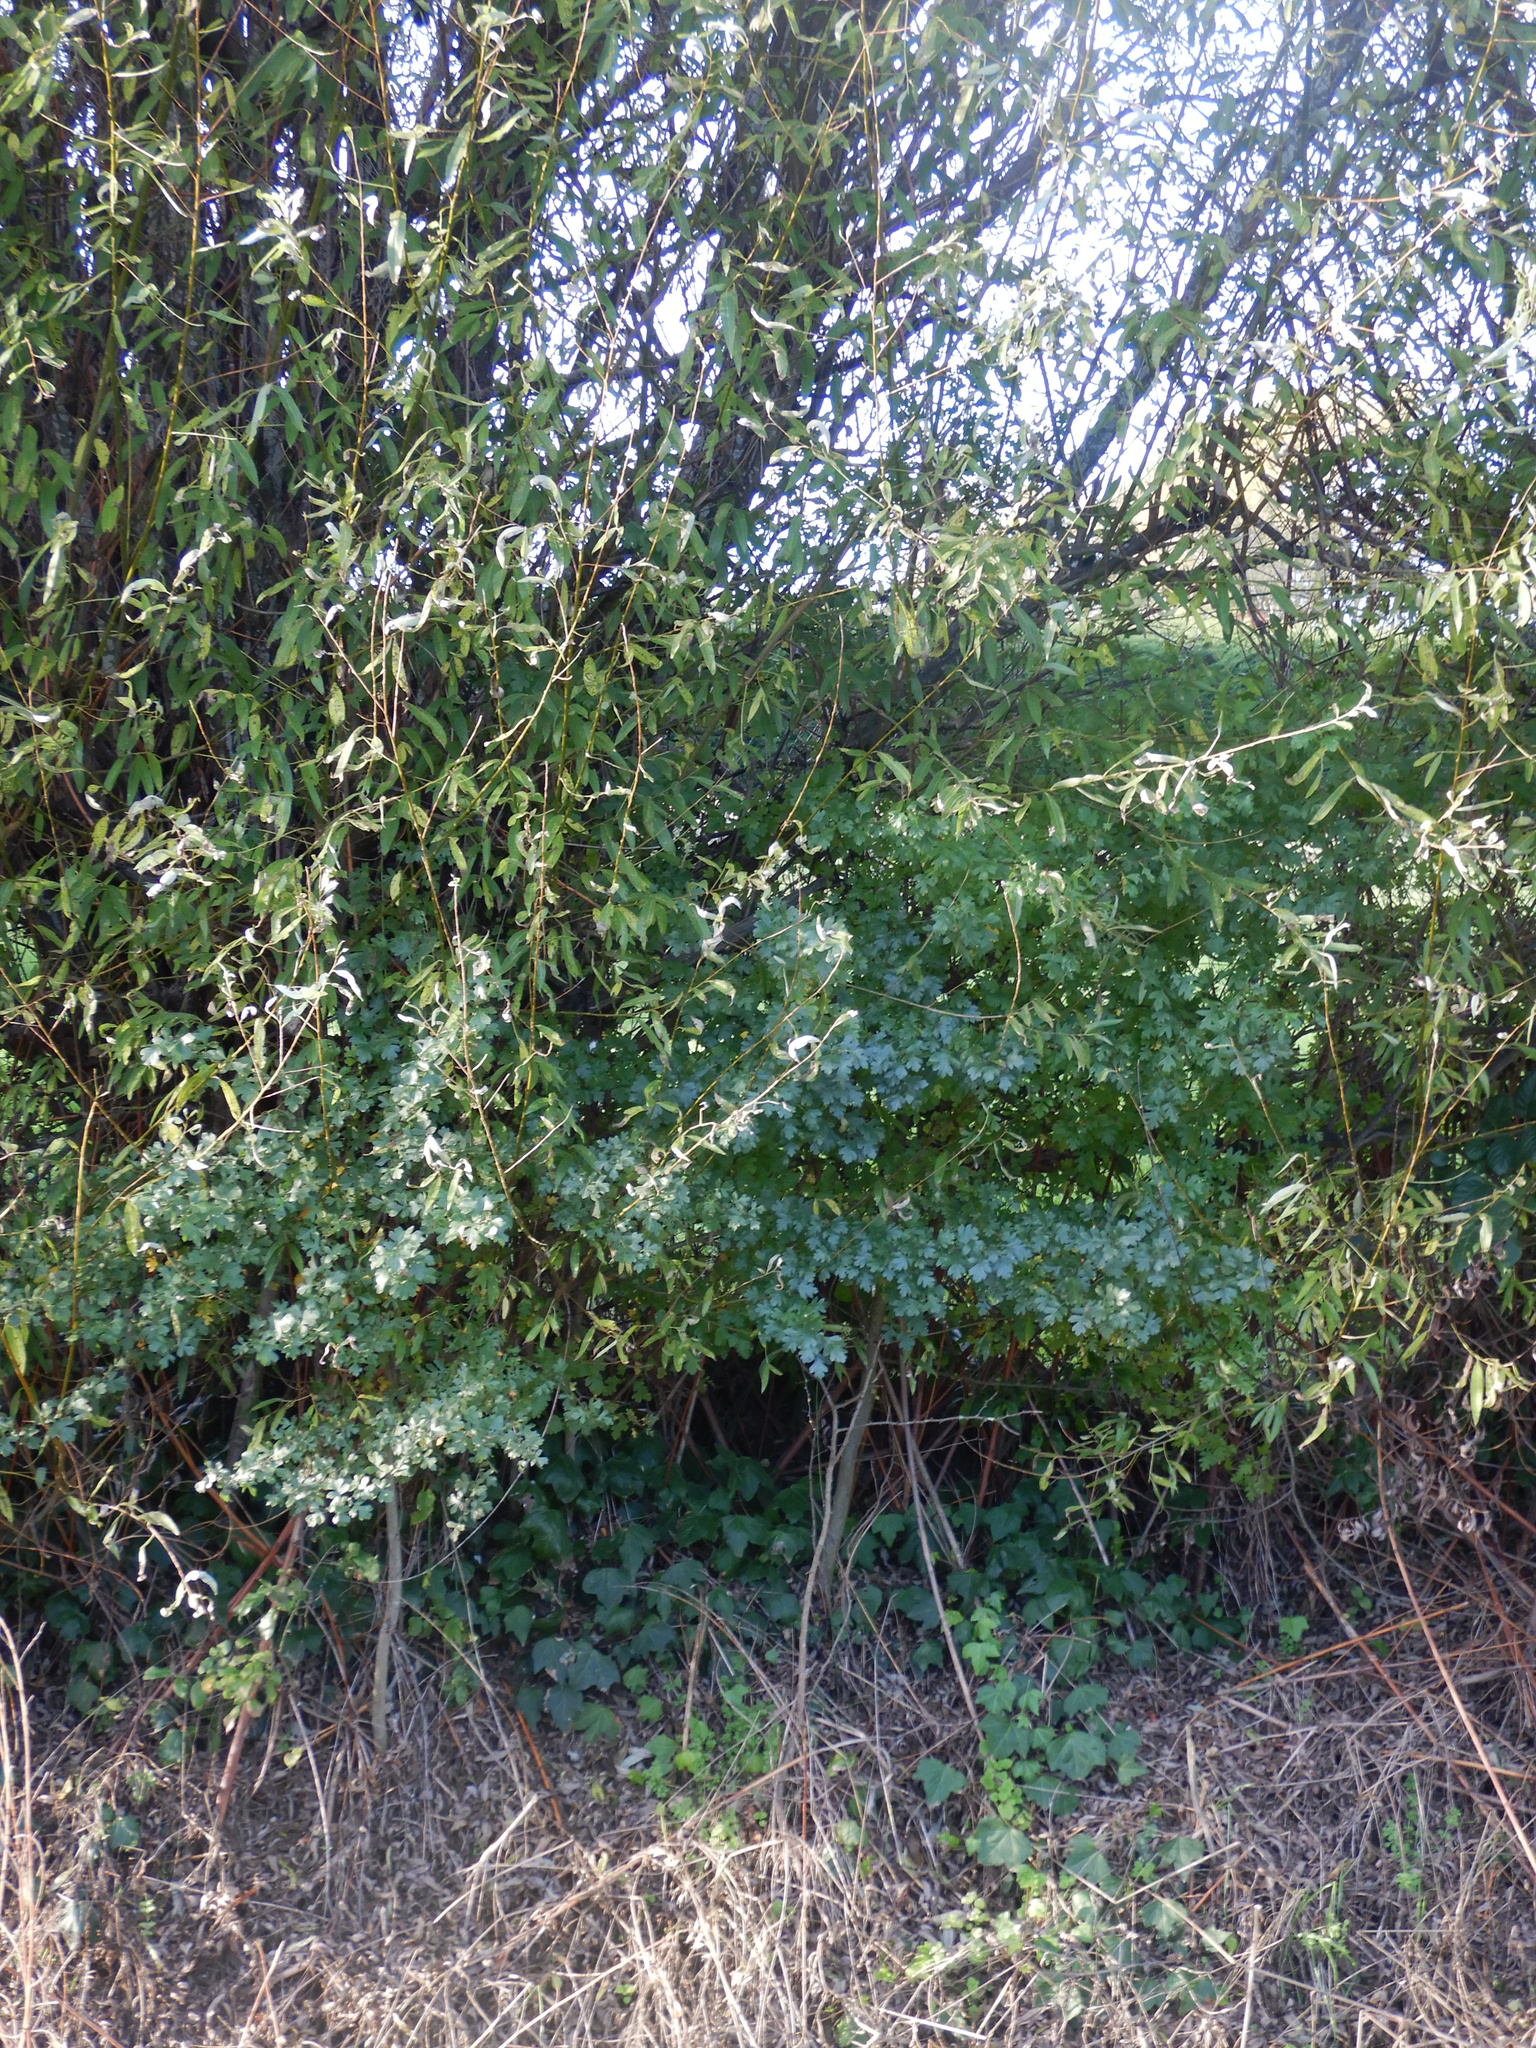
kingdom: Plantae
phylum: Tracheophyta
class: Magnoliopsida
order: Rosales
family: Rosaceae
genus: Crataegus
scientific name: Crataegus monogyna
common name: Hawthorn
